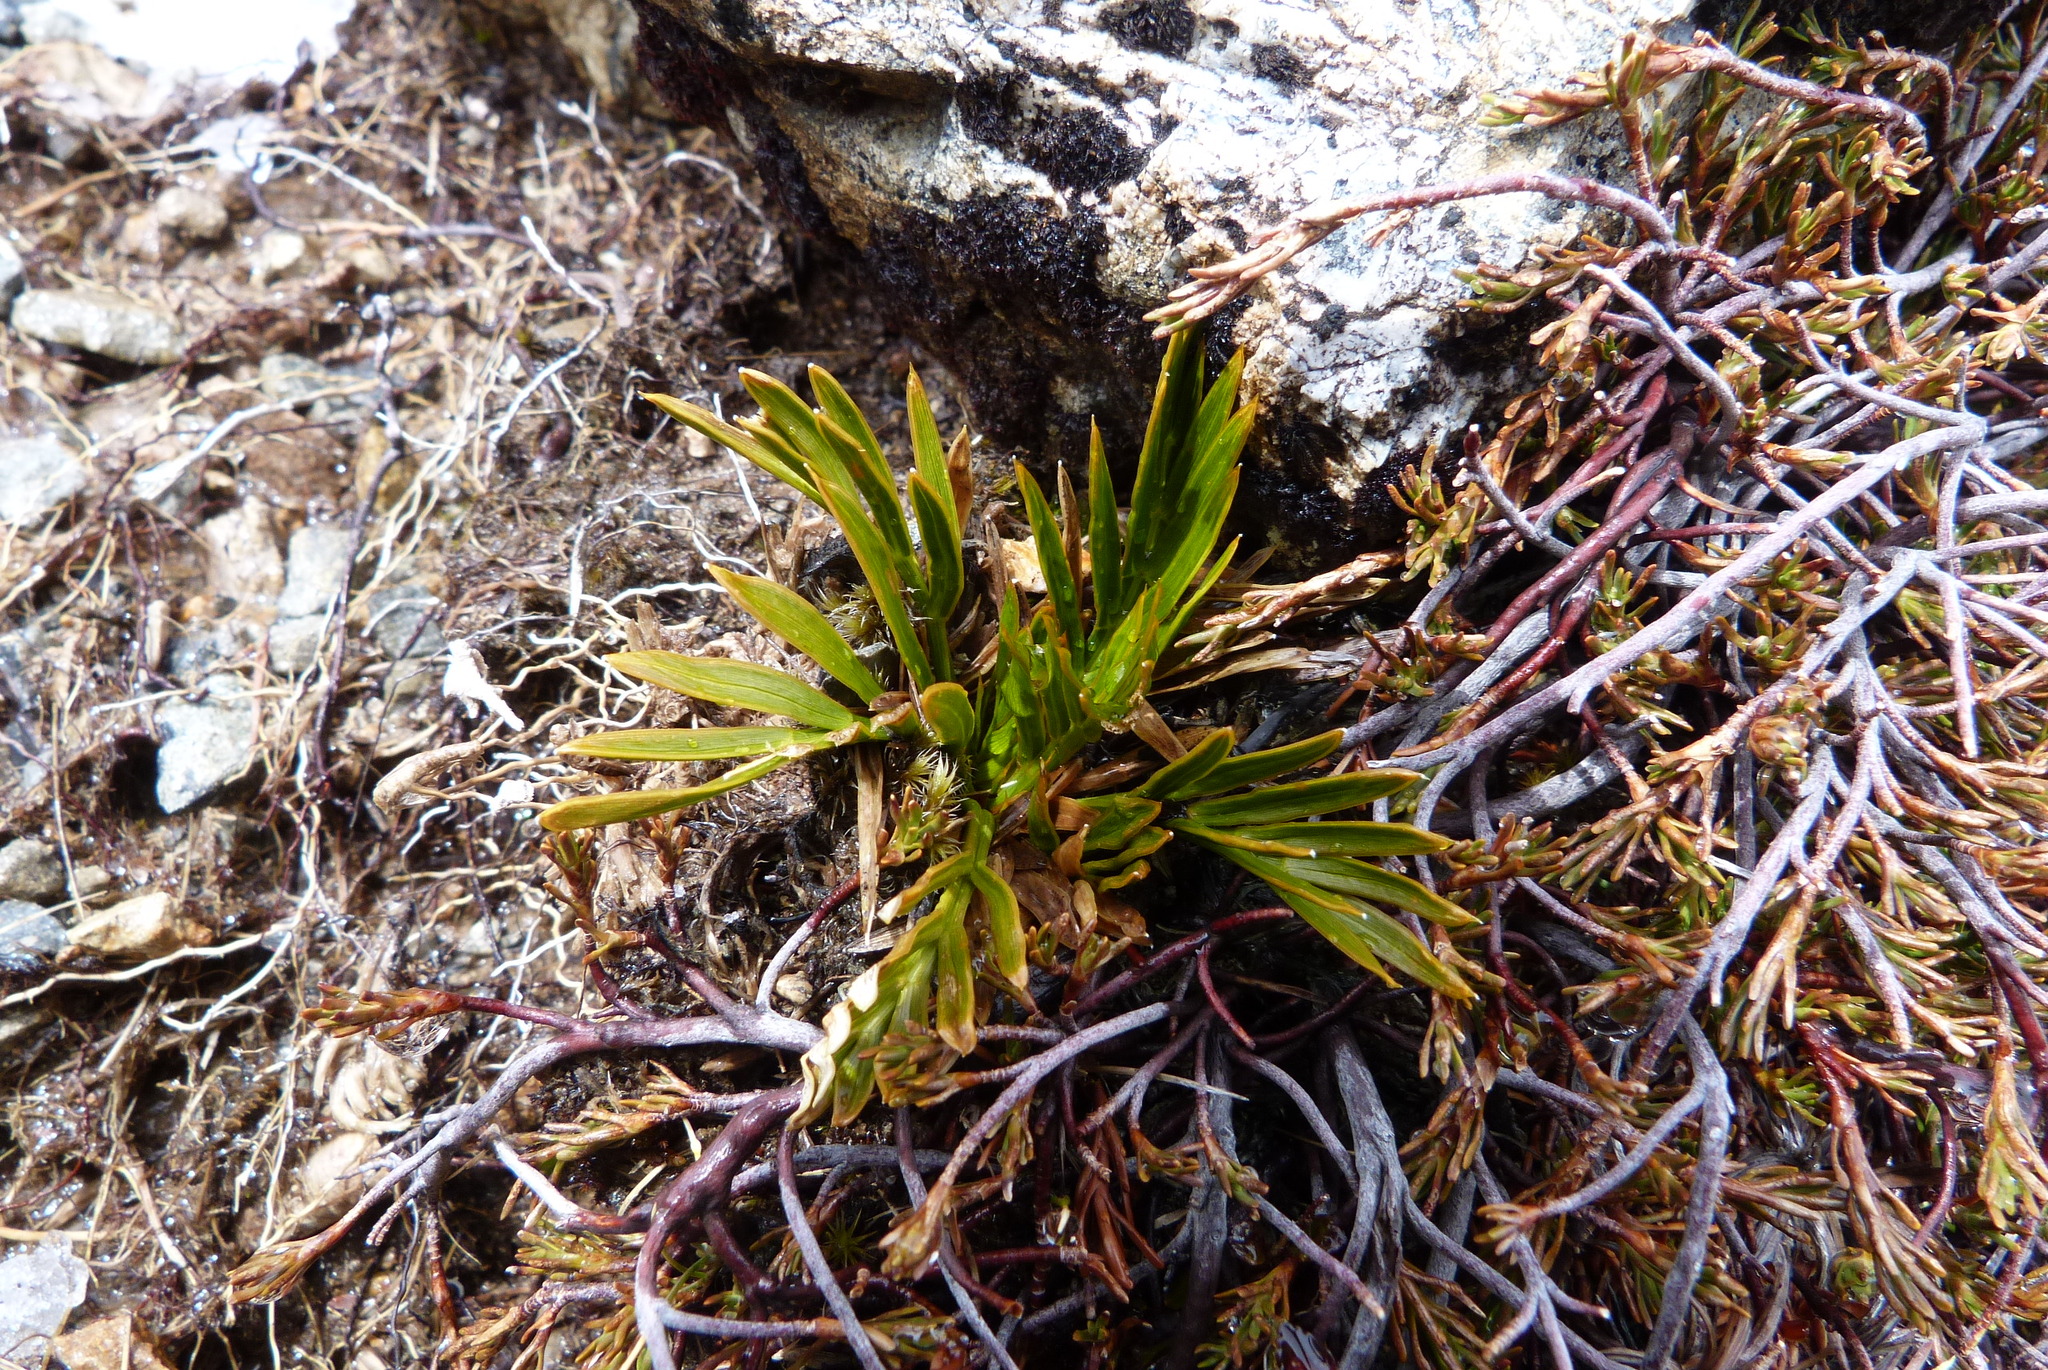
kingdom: Plantae
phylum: Tracheophyta
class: Magnoliopsida
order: Apiales
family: Apiaceae
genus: Aciphylla
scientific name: Aciphylla similis
